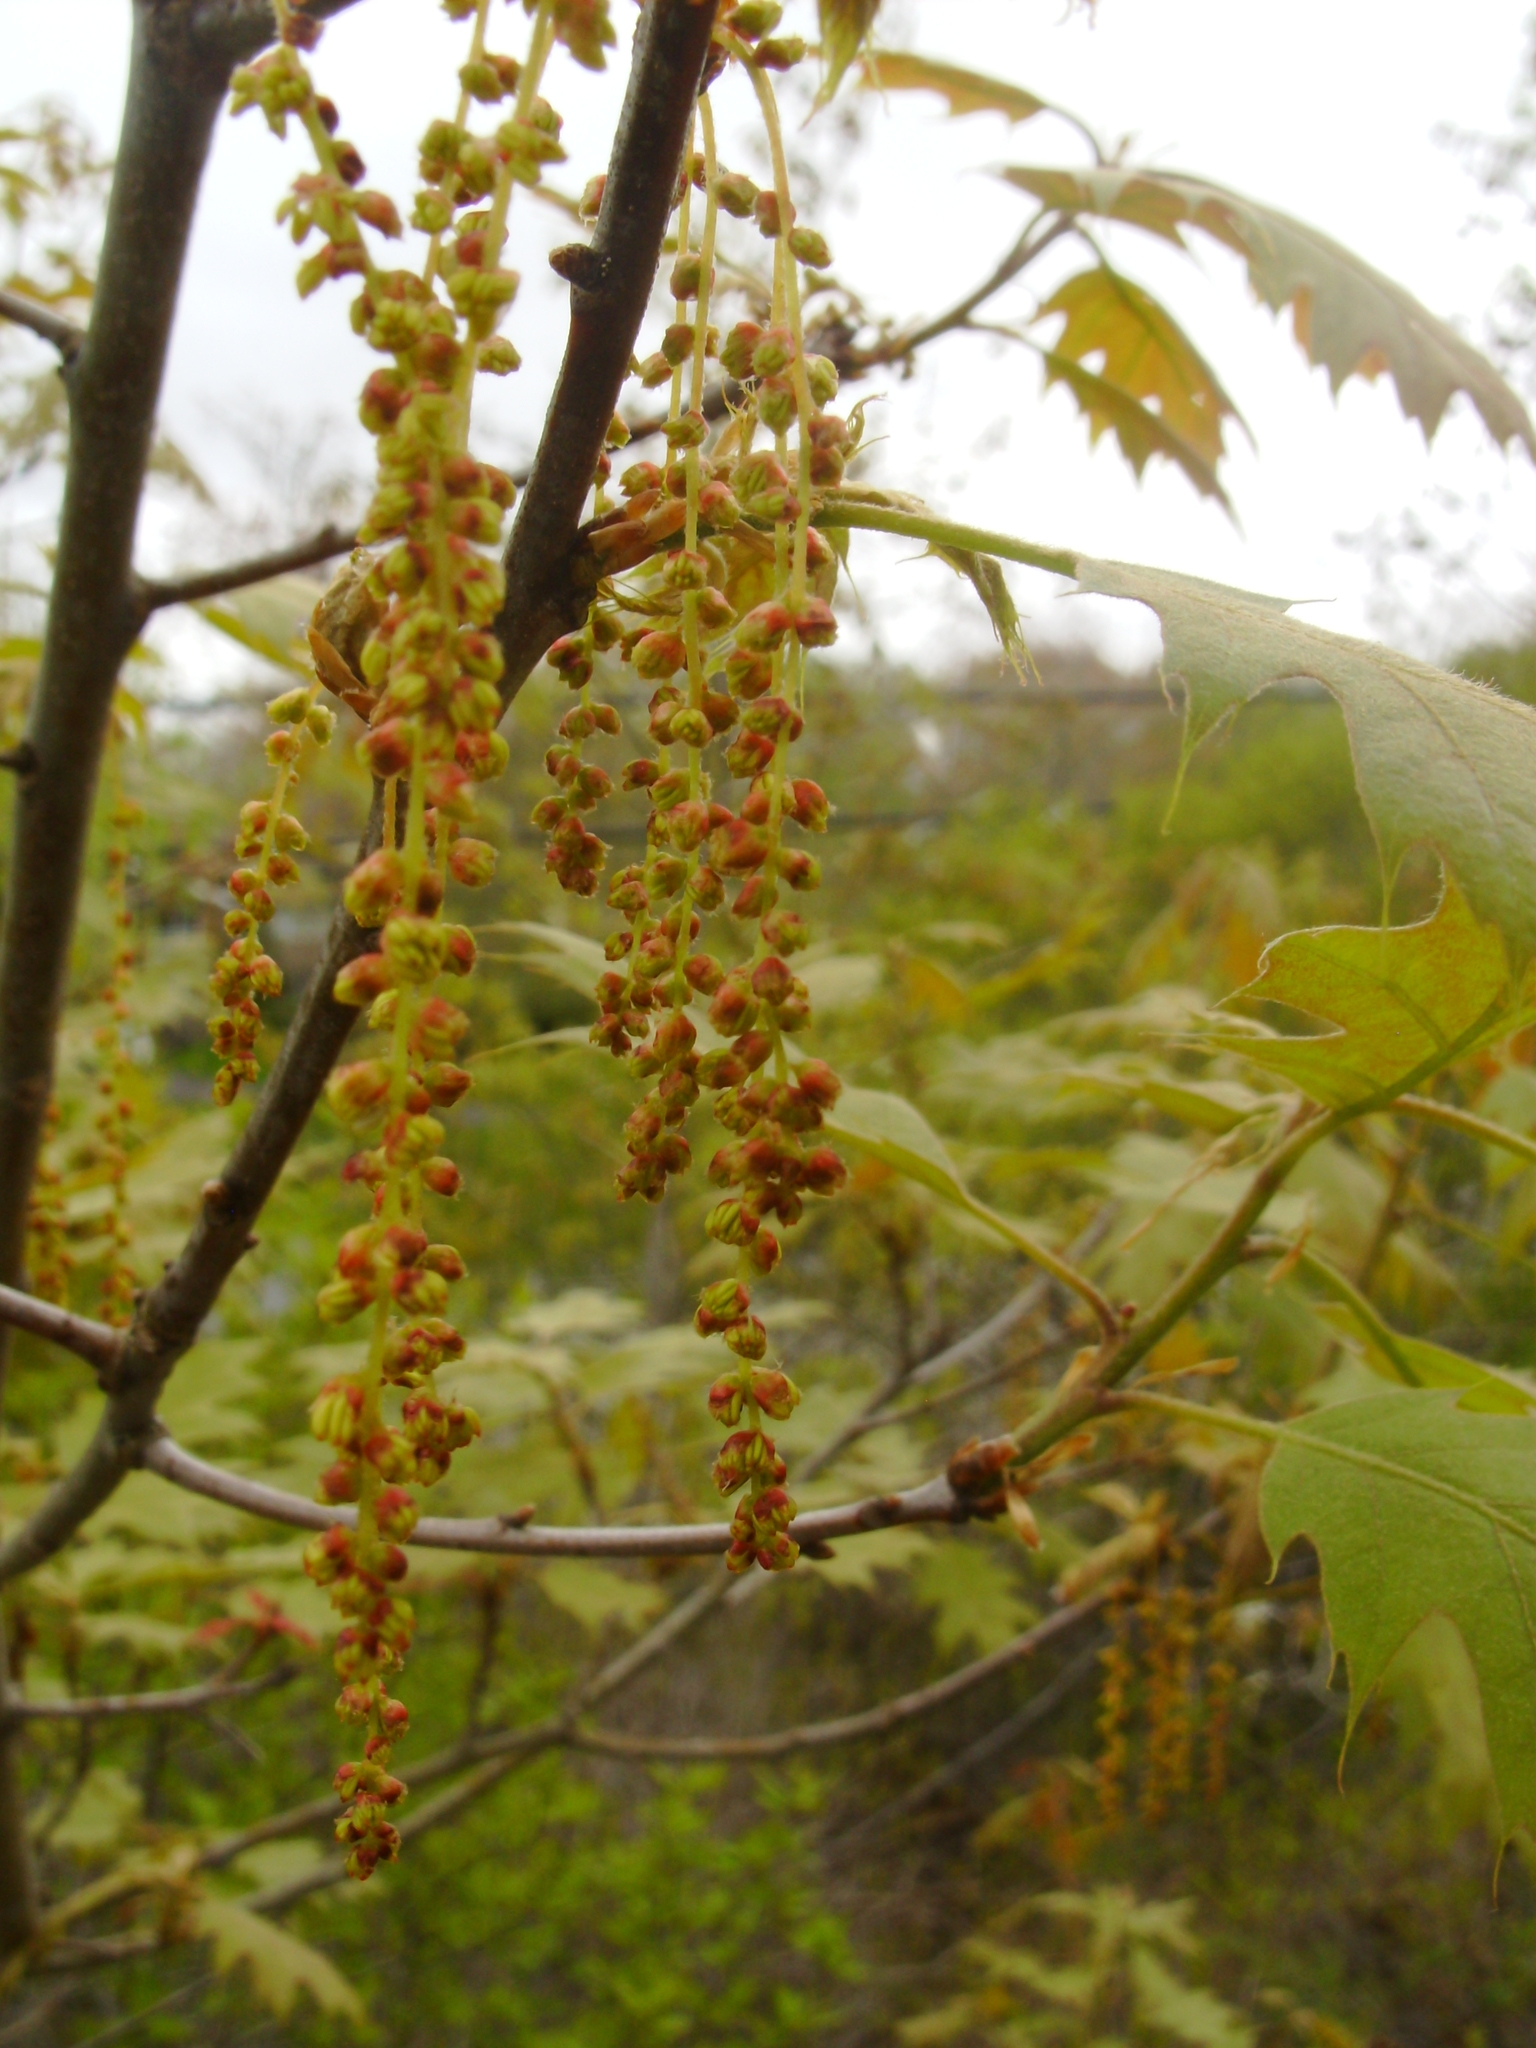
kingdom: Plantae
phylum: Tracheophyta
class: Magnoliopsida
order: Fagales
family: Fagaceae
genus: Quercus
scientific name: Quercus rubra
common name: Red oak
